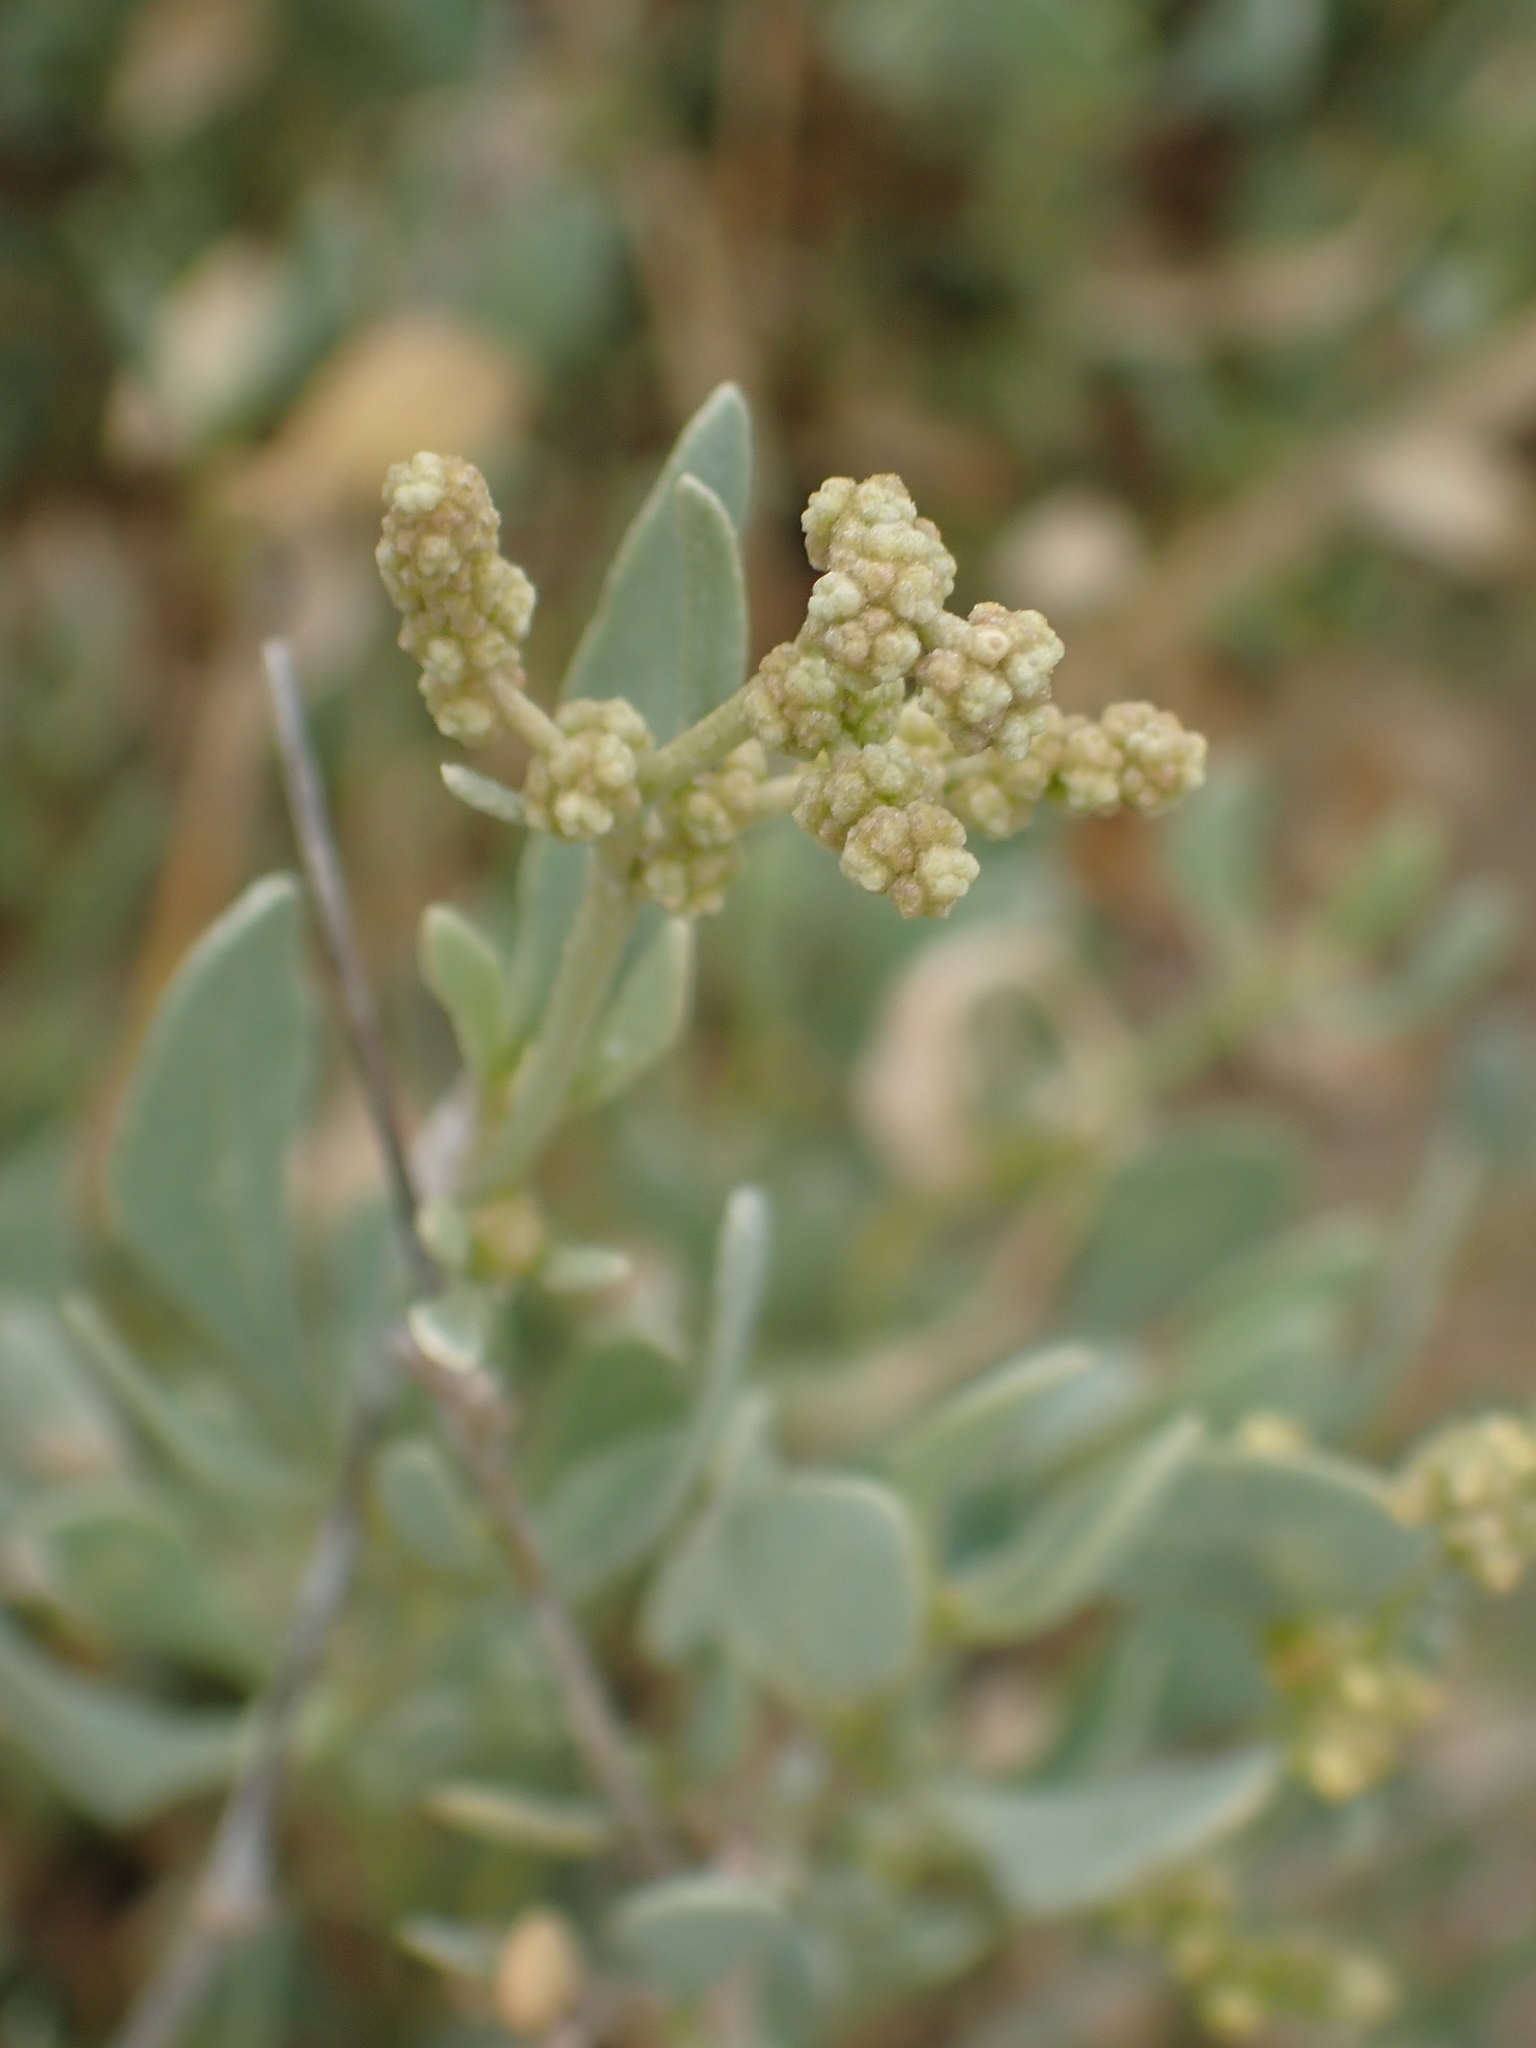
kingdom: Plantae
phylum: Tracheophyta
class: Magnoliopsida
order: Caryophyllales
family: Amaranthaceae
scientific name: Amaranthaceae
